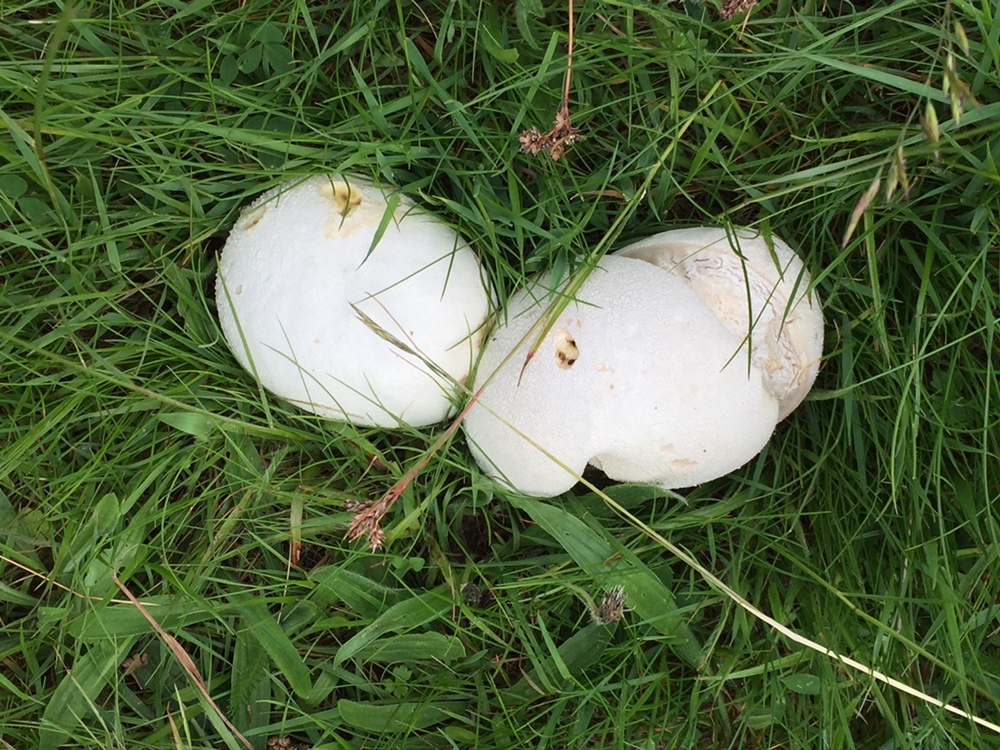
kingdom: Fungi
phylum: Basidiomycota
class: Agaricomycetes
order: Agaricales
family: Lycoperdaceae
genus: Lycoperdon
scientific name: Lycoperdon pratense
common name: Meadow puffball
